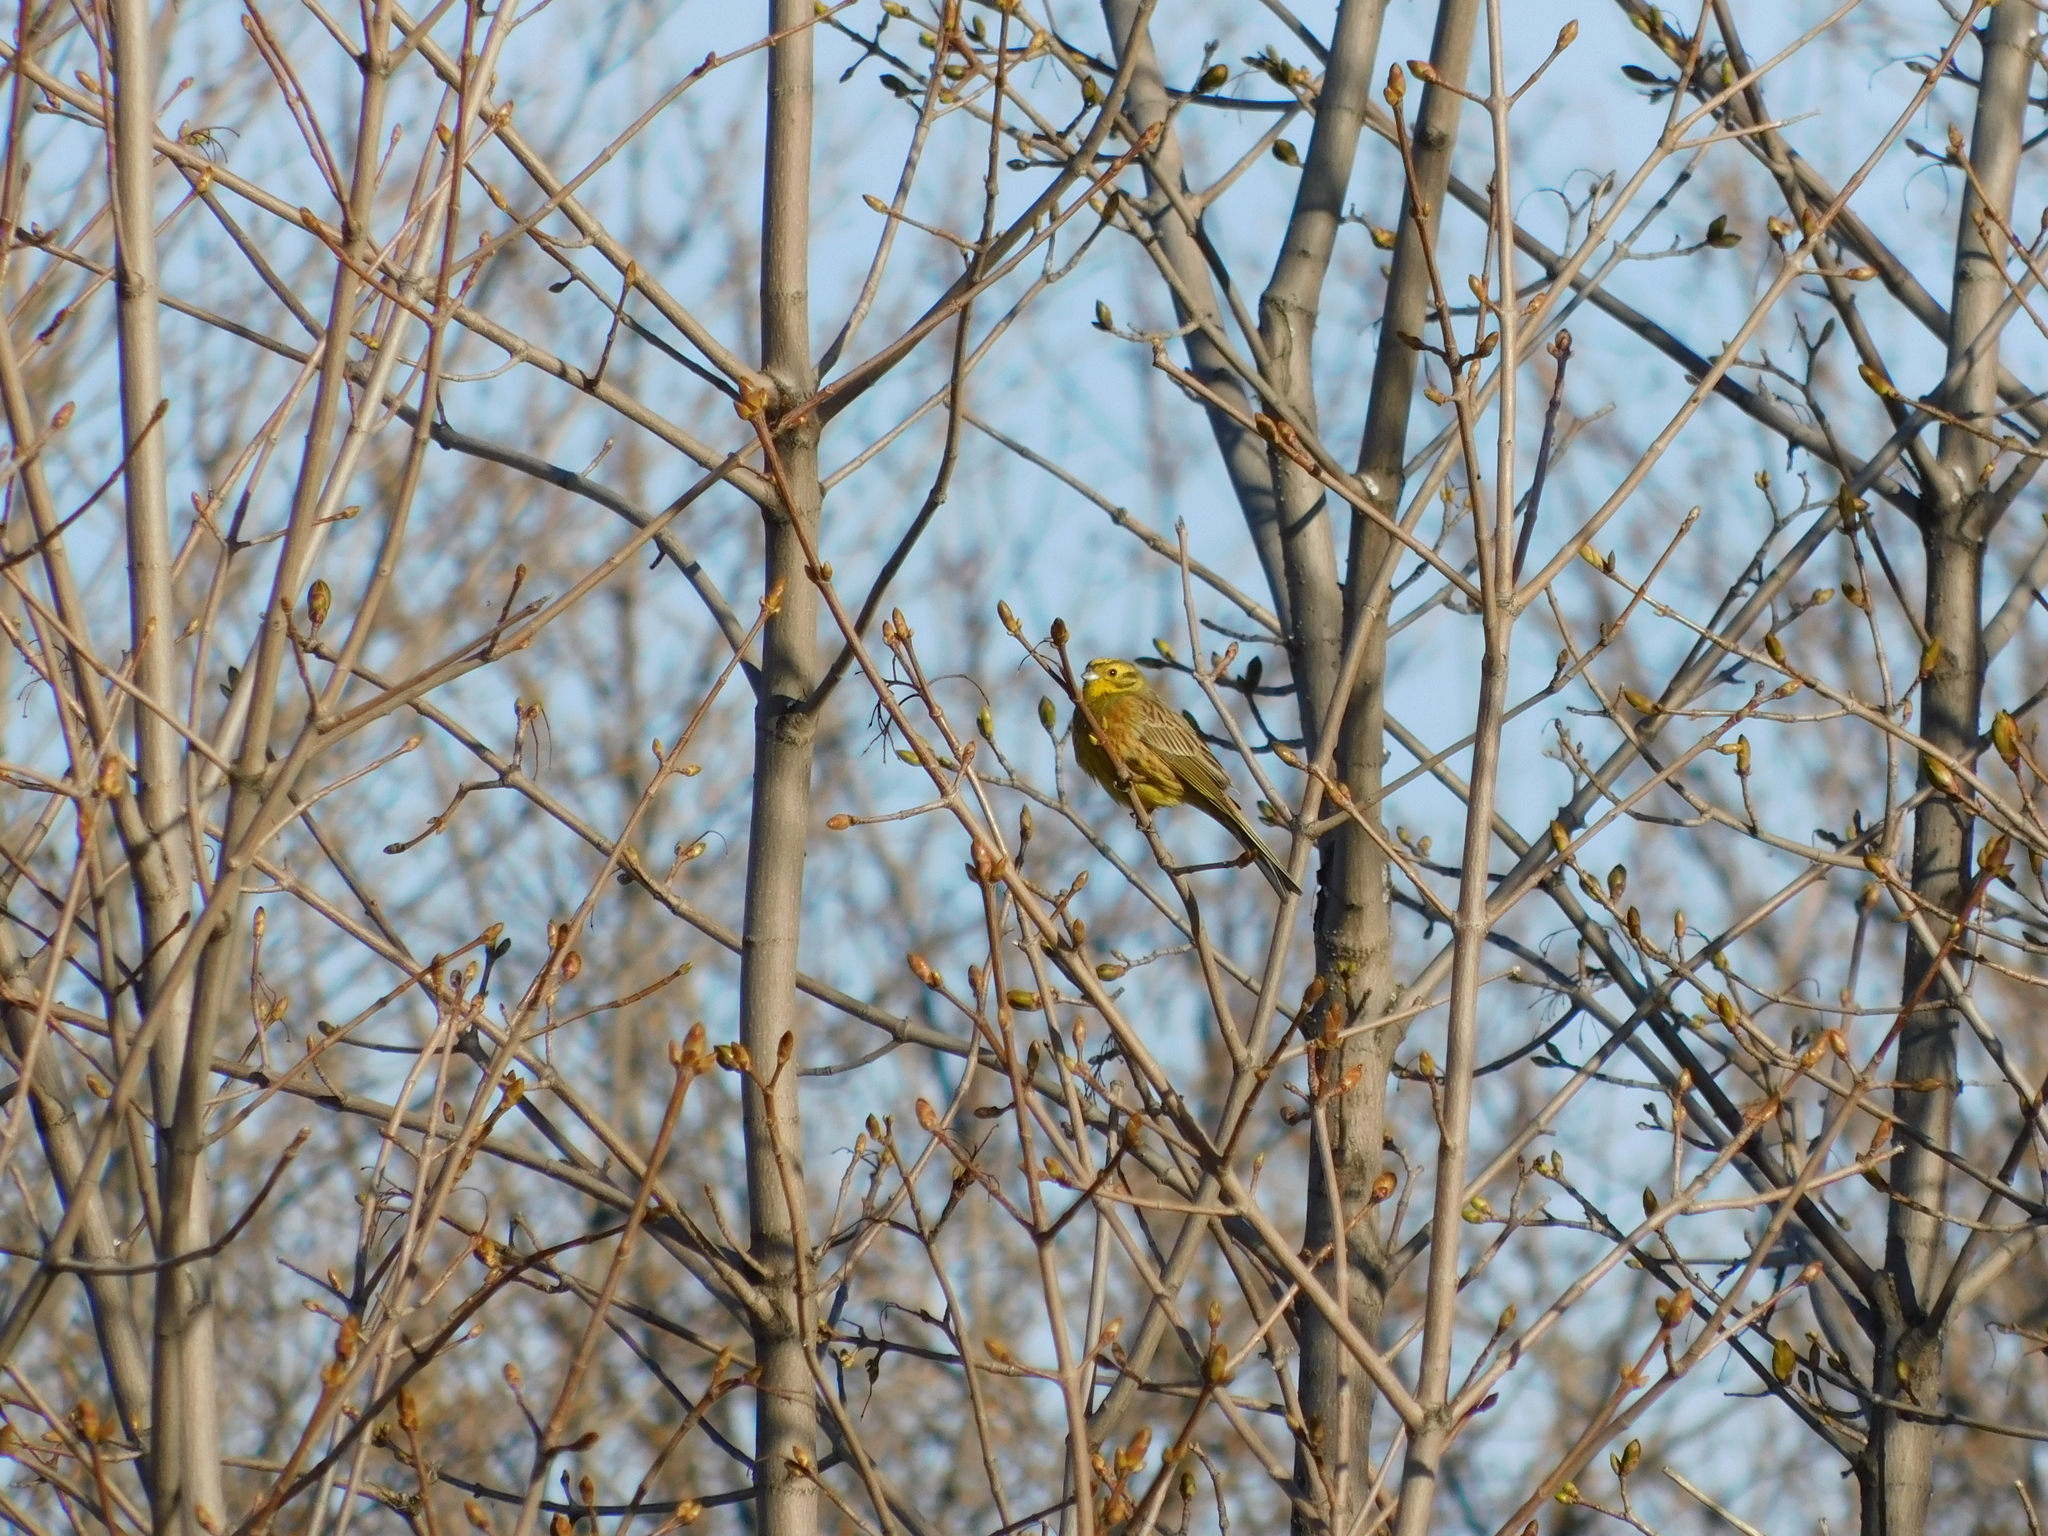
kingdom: Animalia
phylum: Chordata
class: Aves
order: Passeriformes
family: Emberizidae
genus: Emberiza
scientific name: Emberiza citrinella
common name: Yellowhammer
